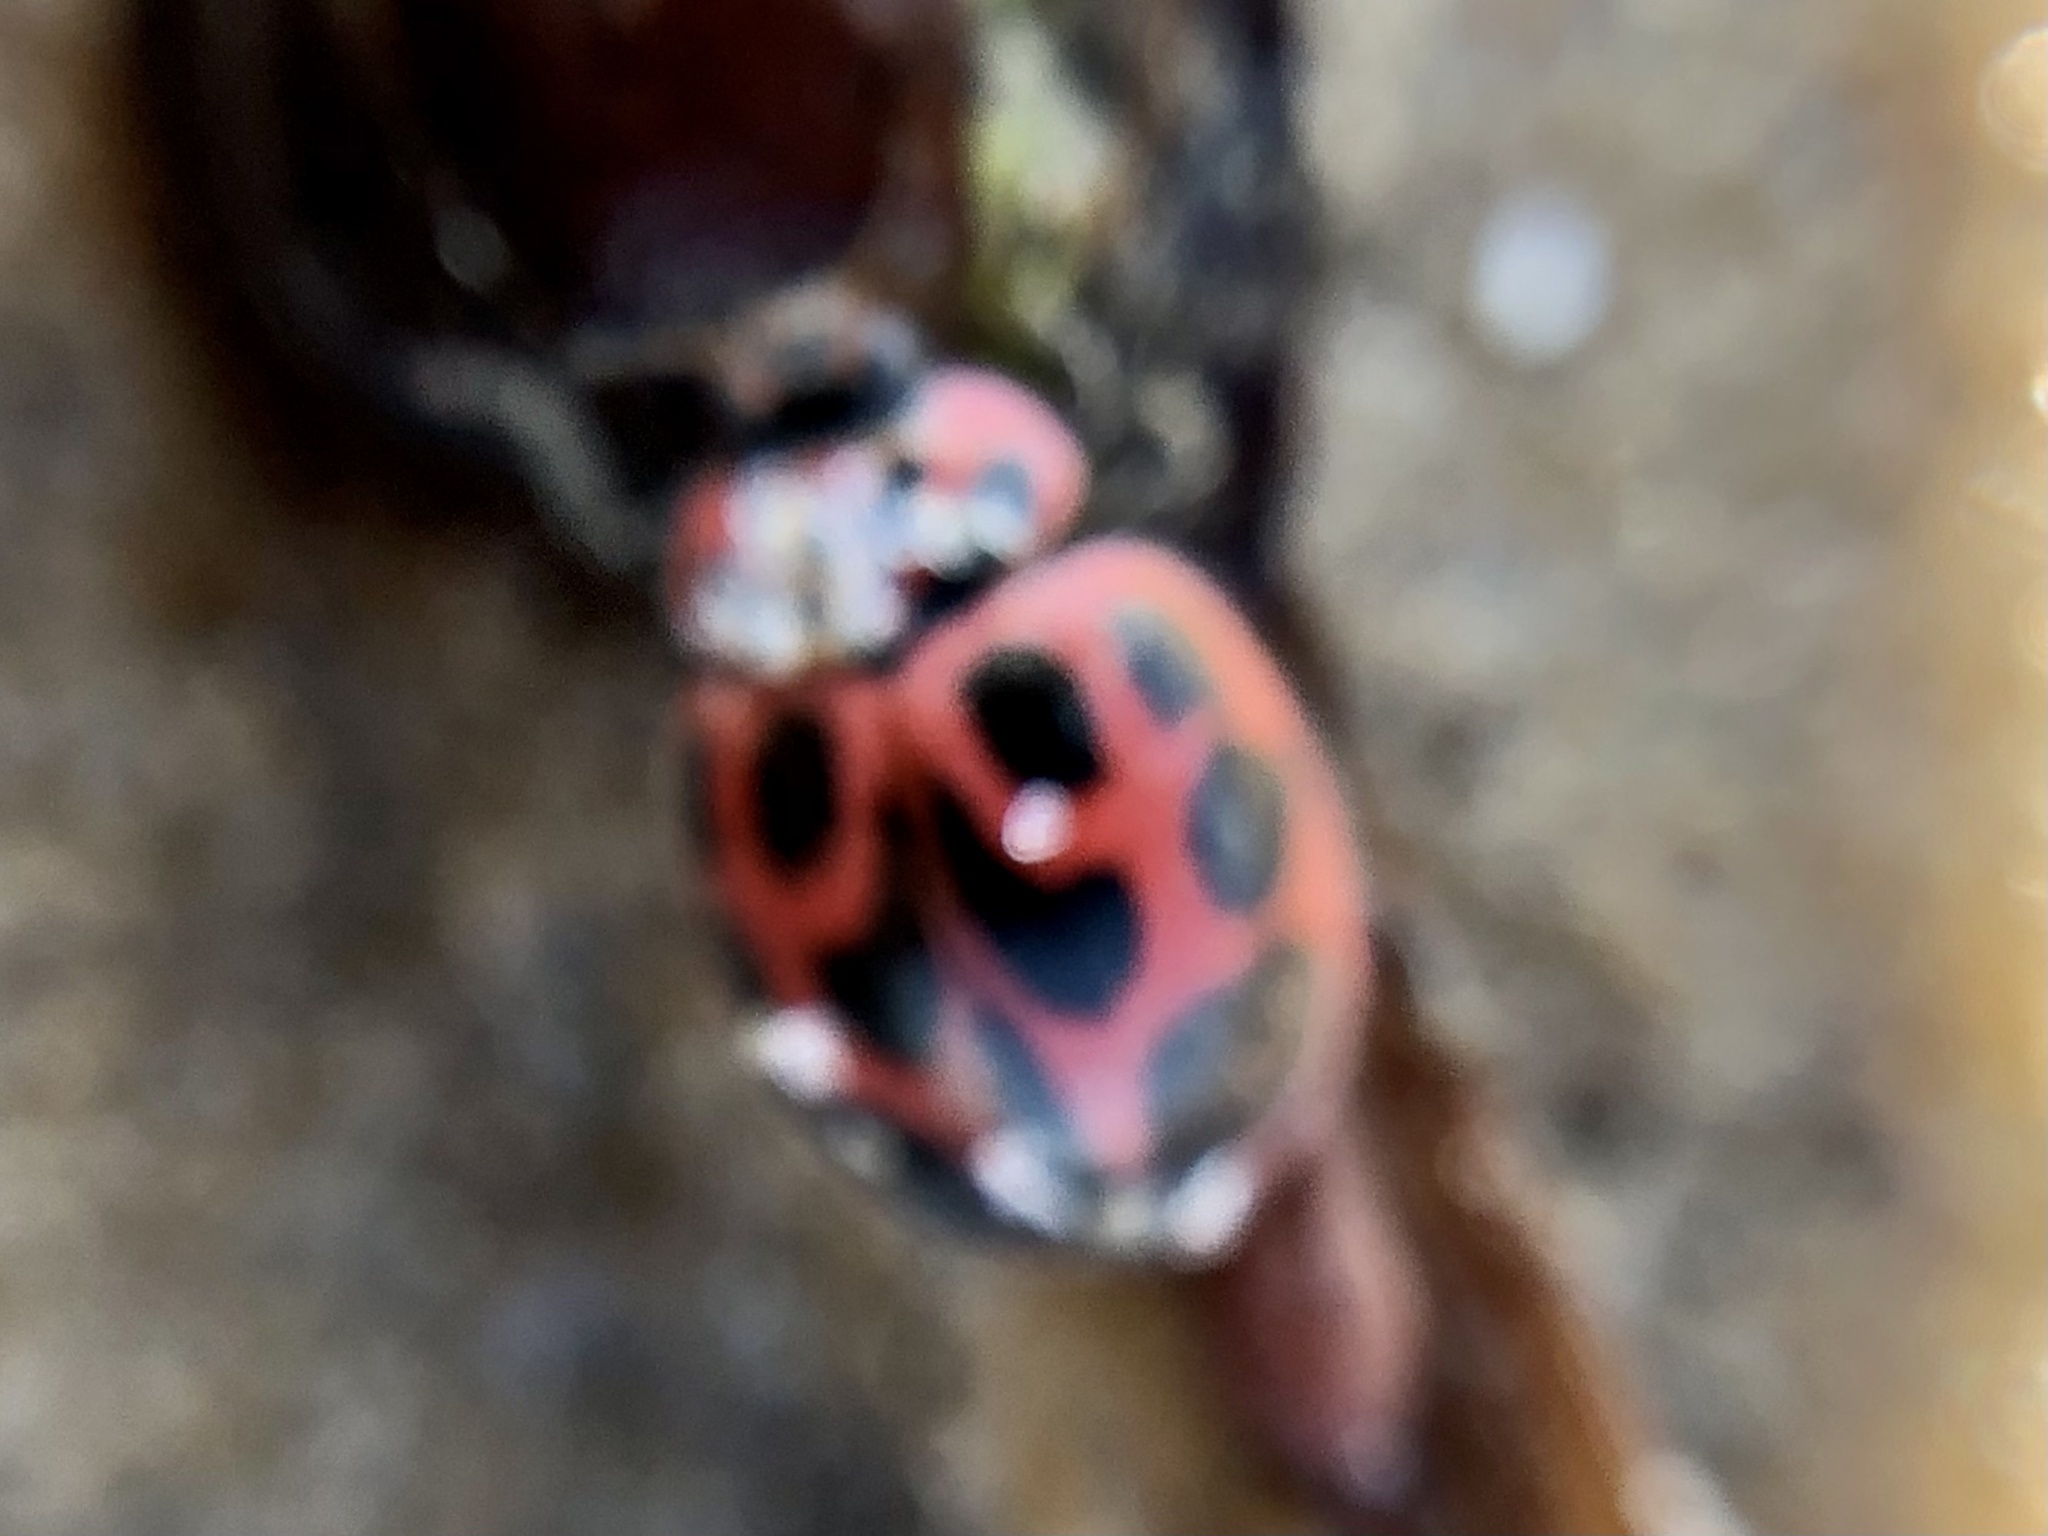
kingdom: Animalia
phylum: Arthropoda
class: Insecta
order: Coleoptera
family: Coccinellidae
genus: Neoharmonia
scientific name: Neoharmonia venusta
